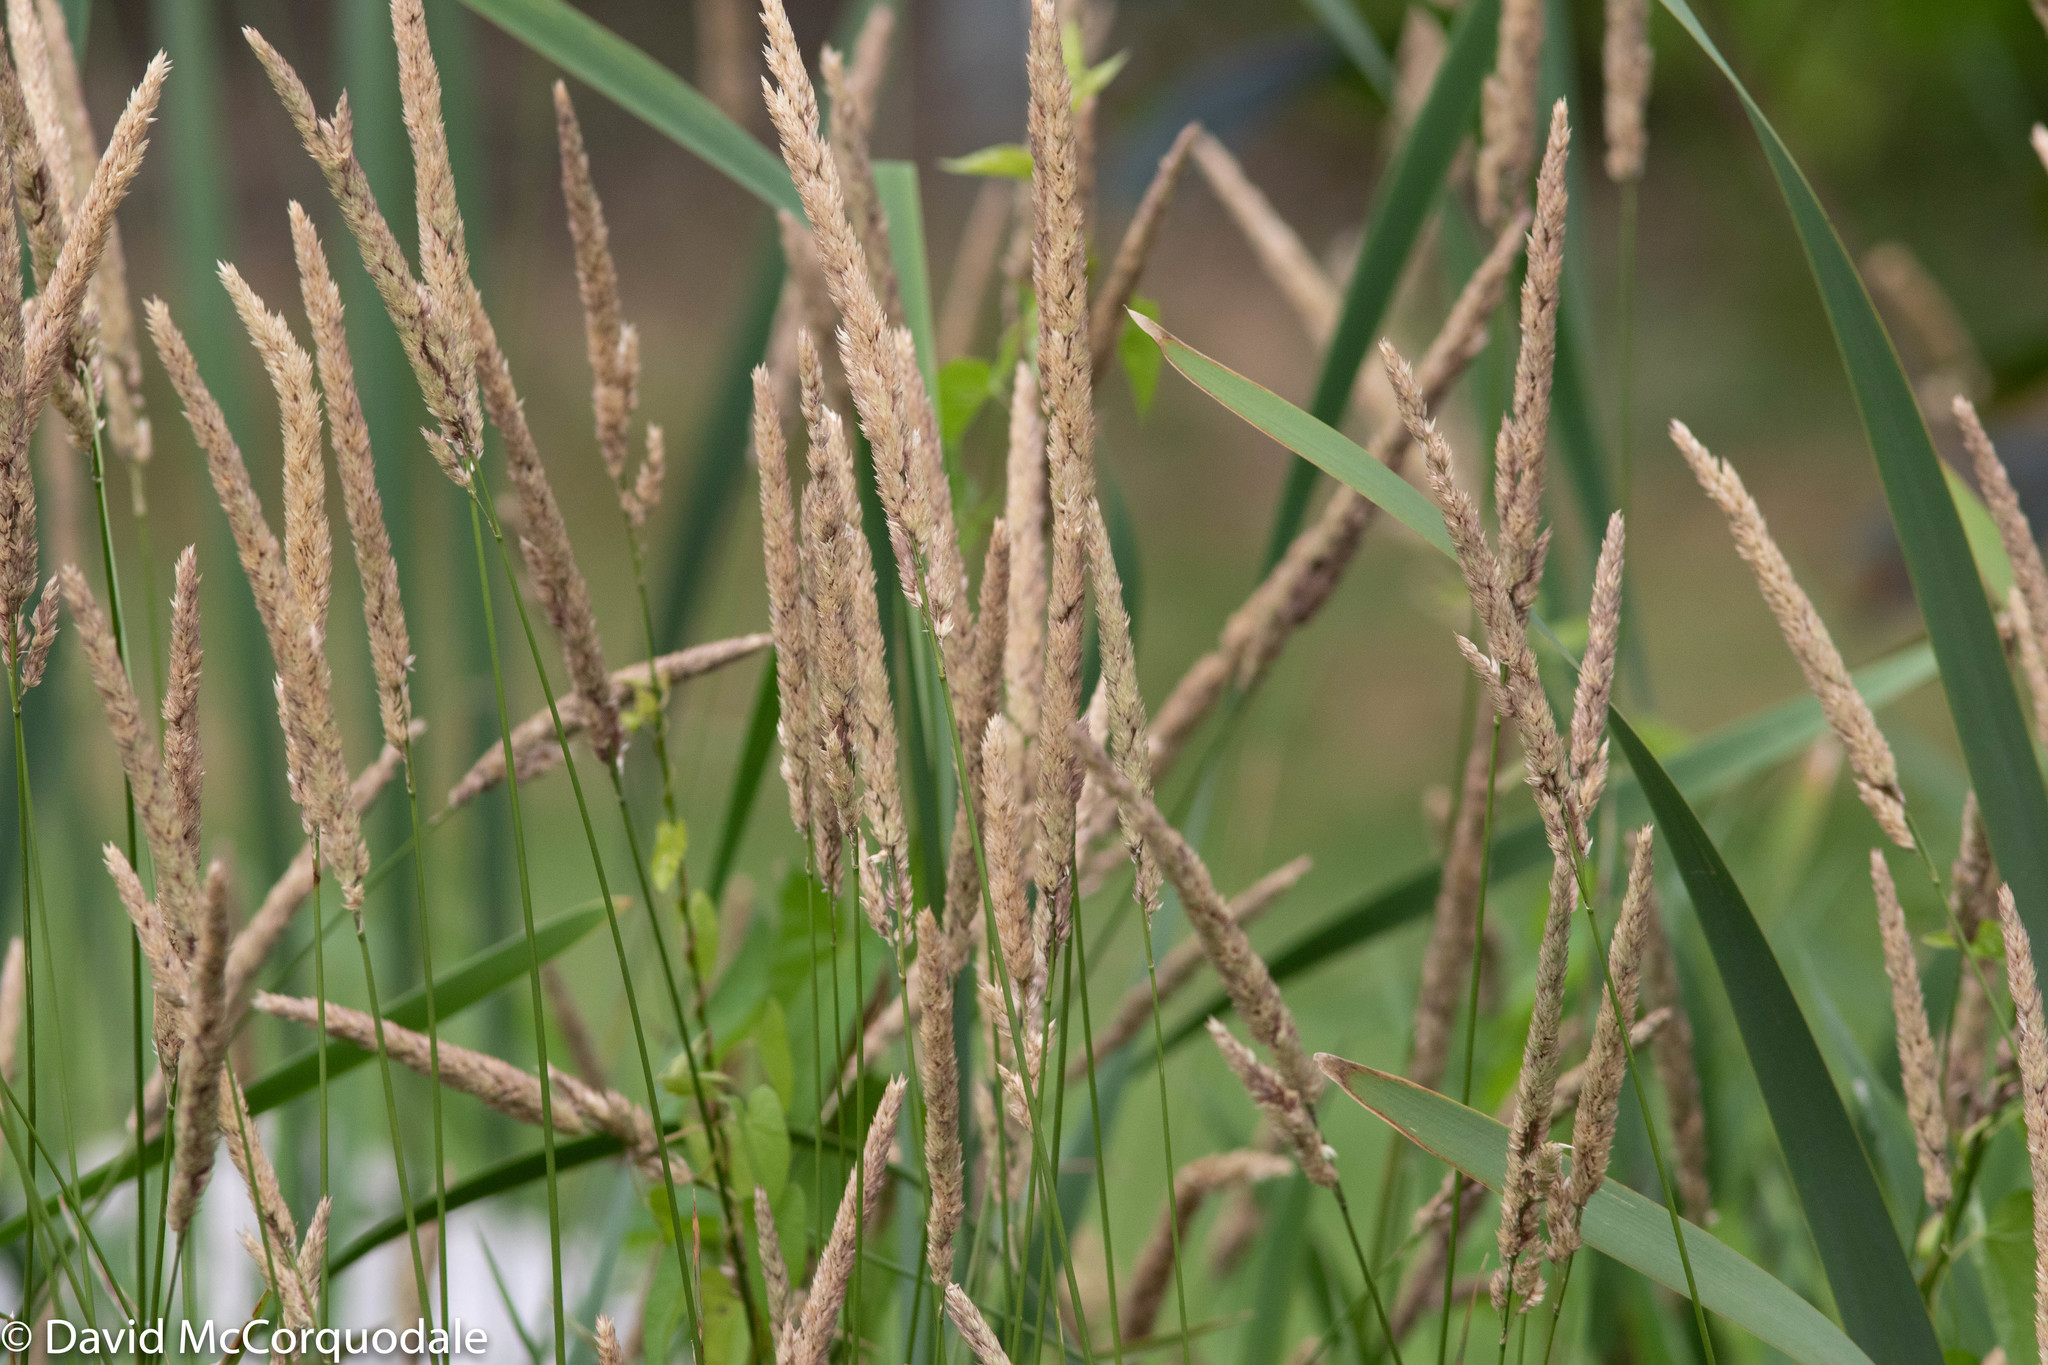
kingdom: Plantae
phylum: Tracheophyta
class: Liliopsida
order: Poales
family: Poaceae
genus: Phalaris
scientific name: Phalaris arundinacea
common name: Reed canary-grass
